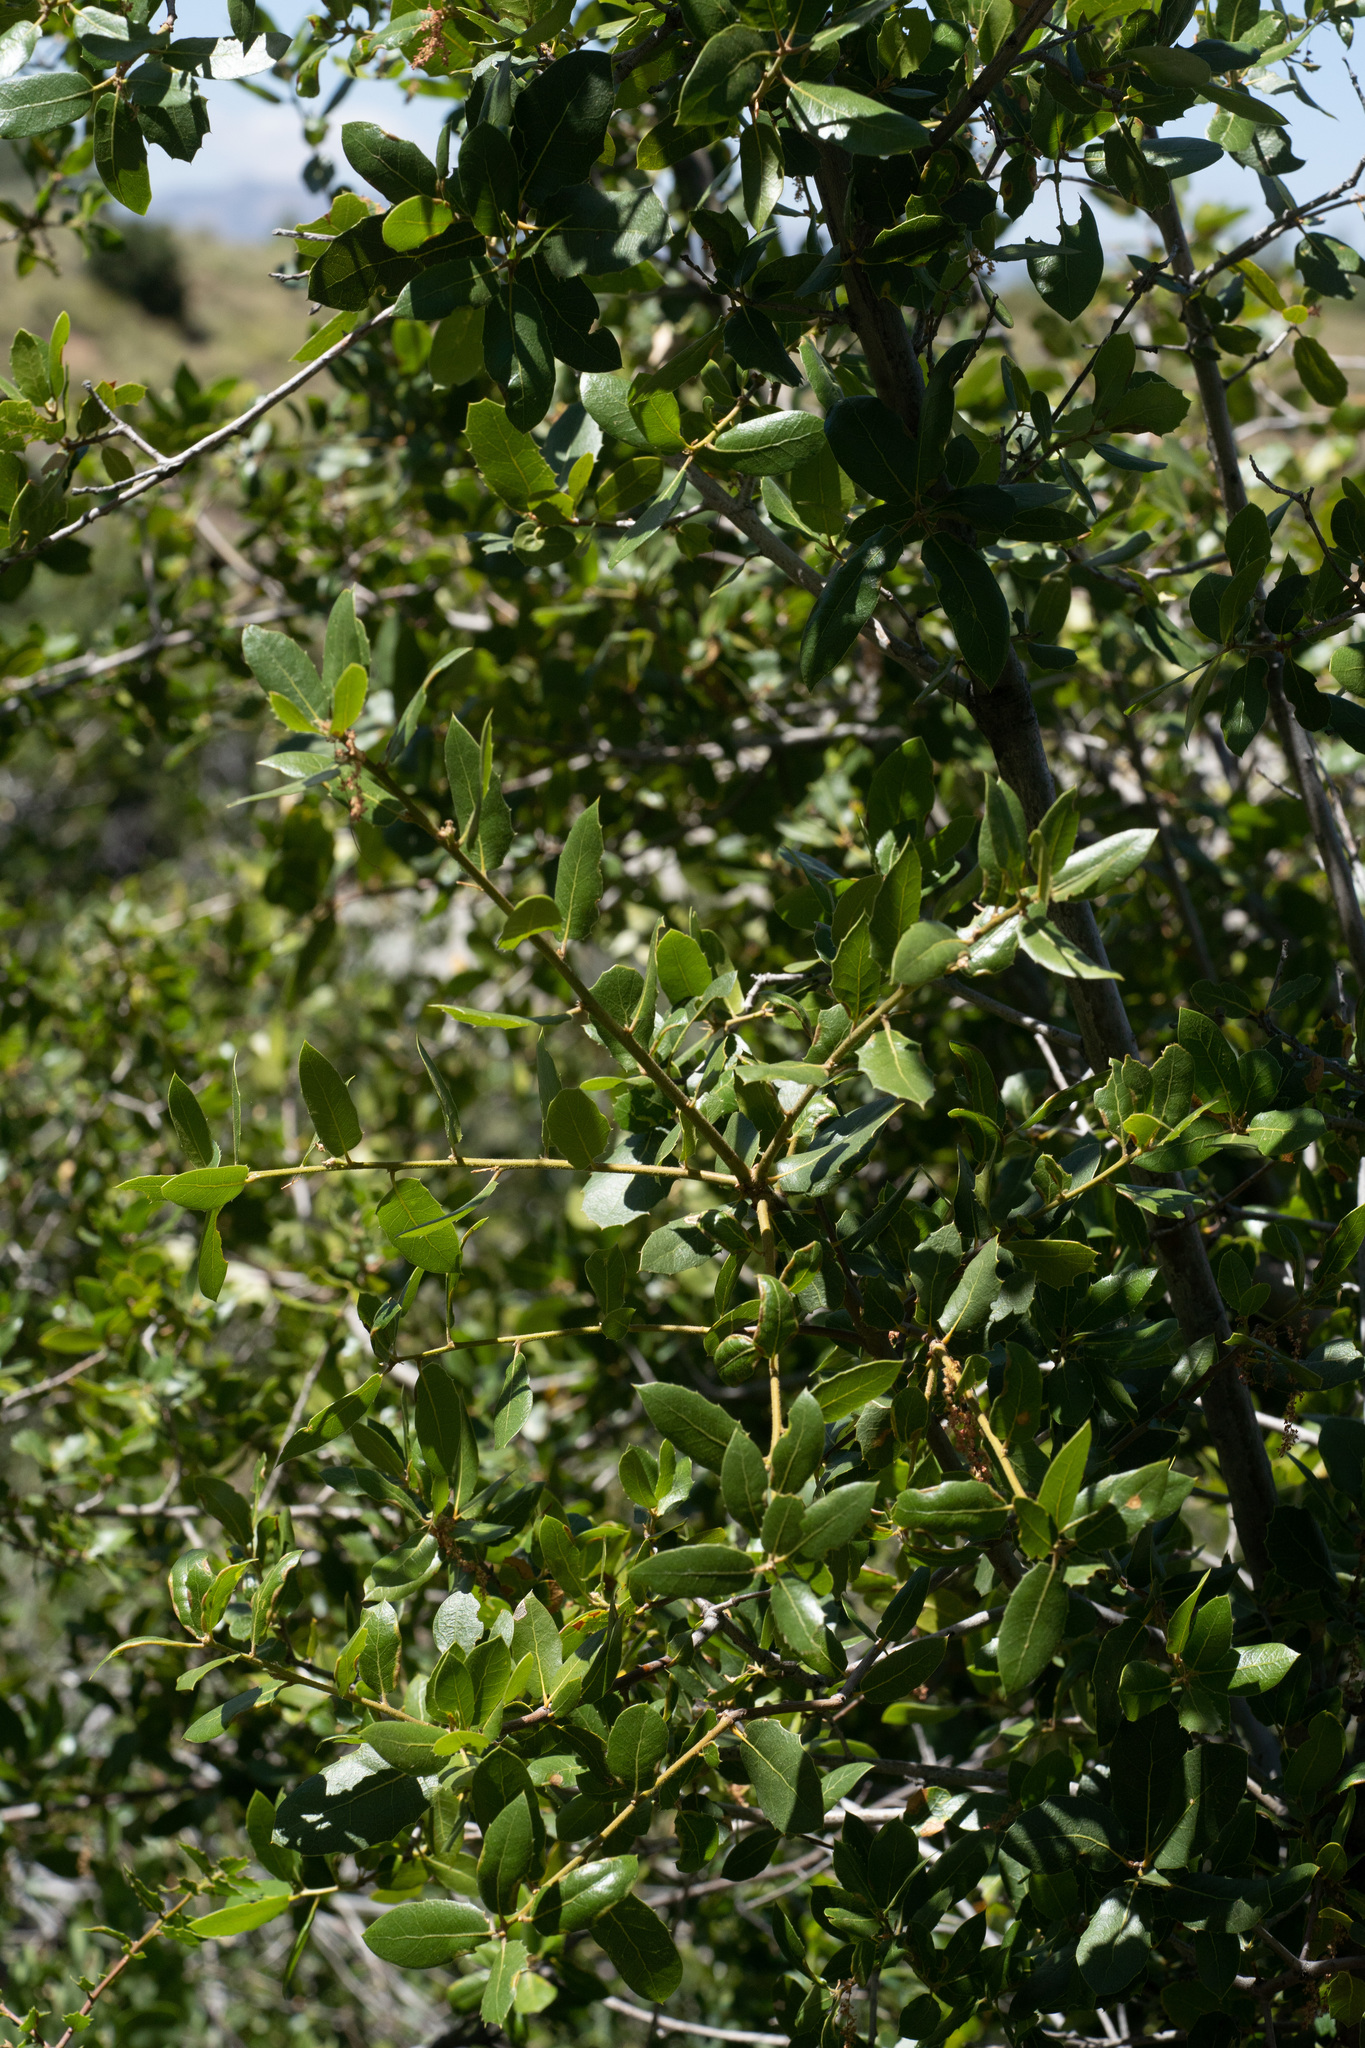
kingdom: Plantae
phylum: Tracheophyta
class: Magnoliopsida
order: Fagales
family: Fagaceae
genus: Quercus
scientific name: Quercus wislizeni
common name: Interior live oak
